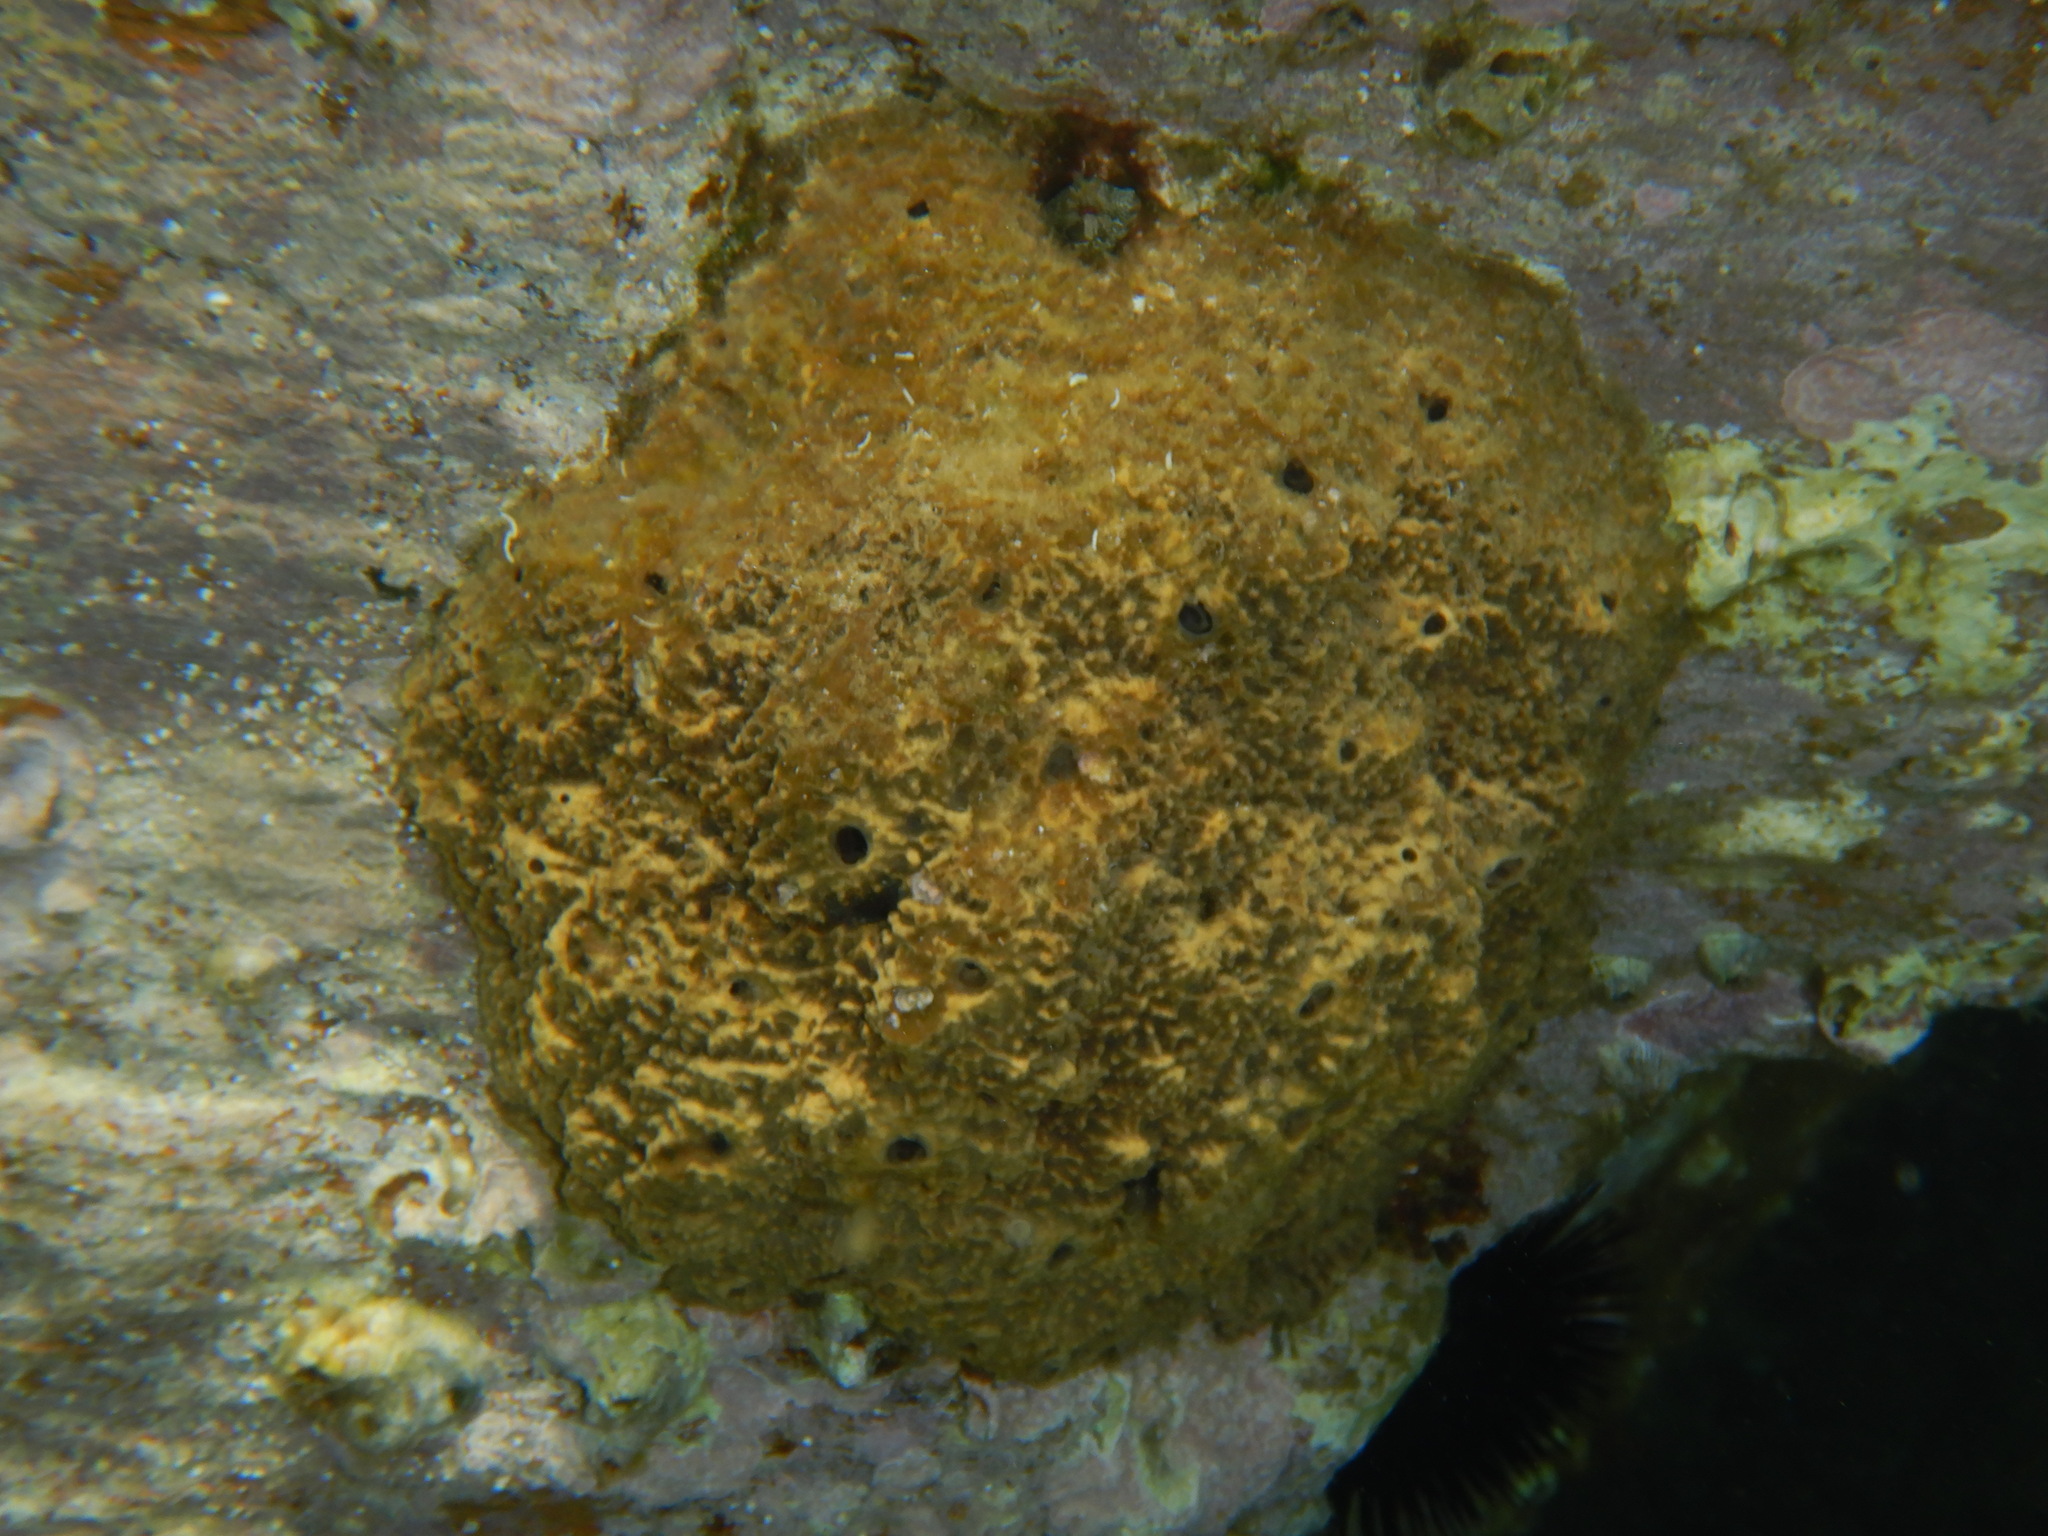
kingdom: Animalia
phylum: Porifera
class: Demospongiae
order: Dictyoceratida
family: Irciniidae
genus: Sarcotragus
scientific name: Sarcotragus fasciculatus
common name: Stinker sponge
